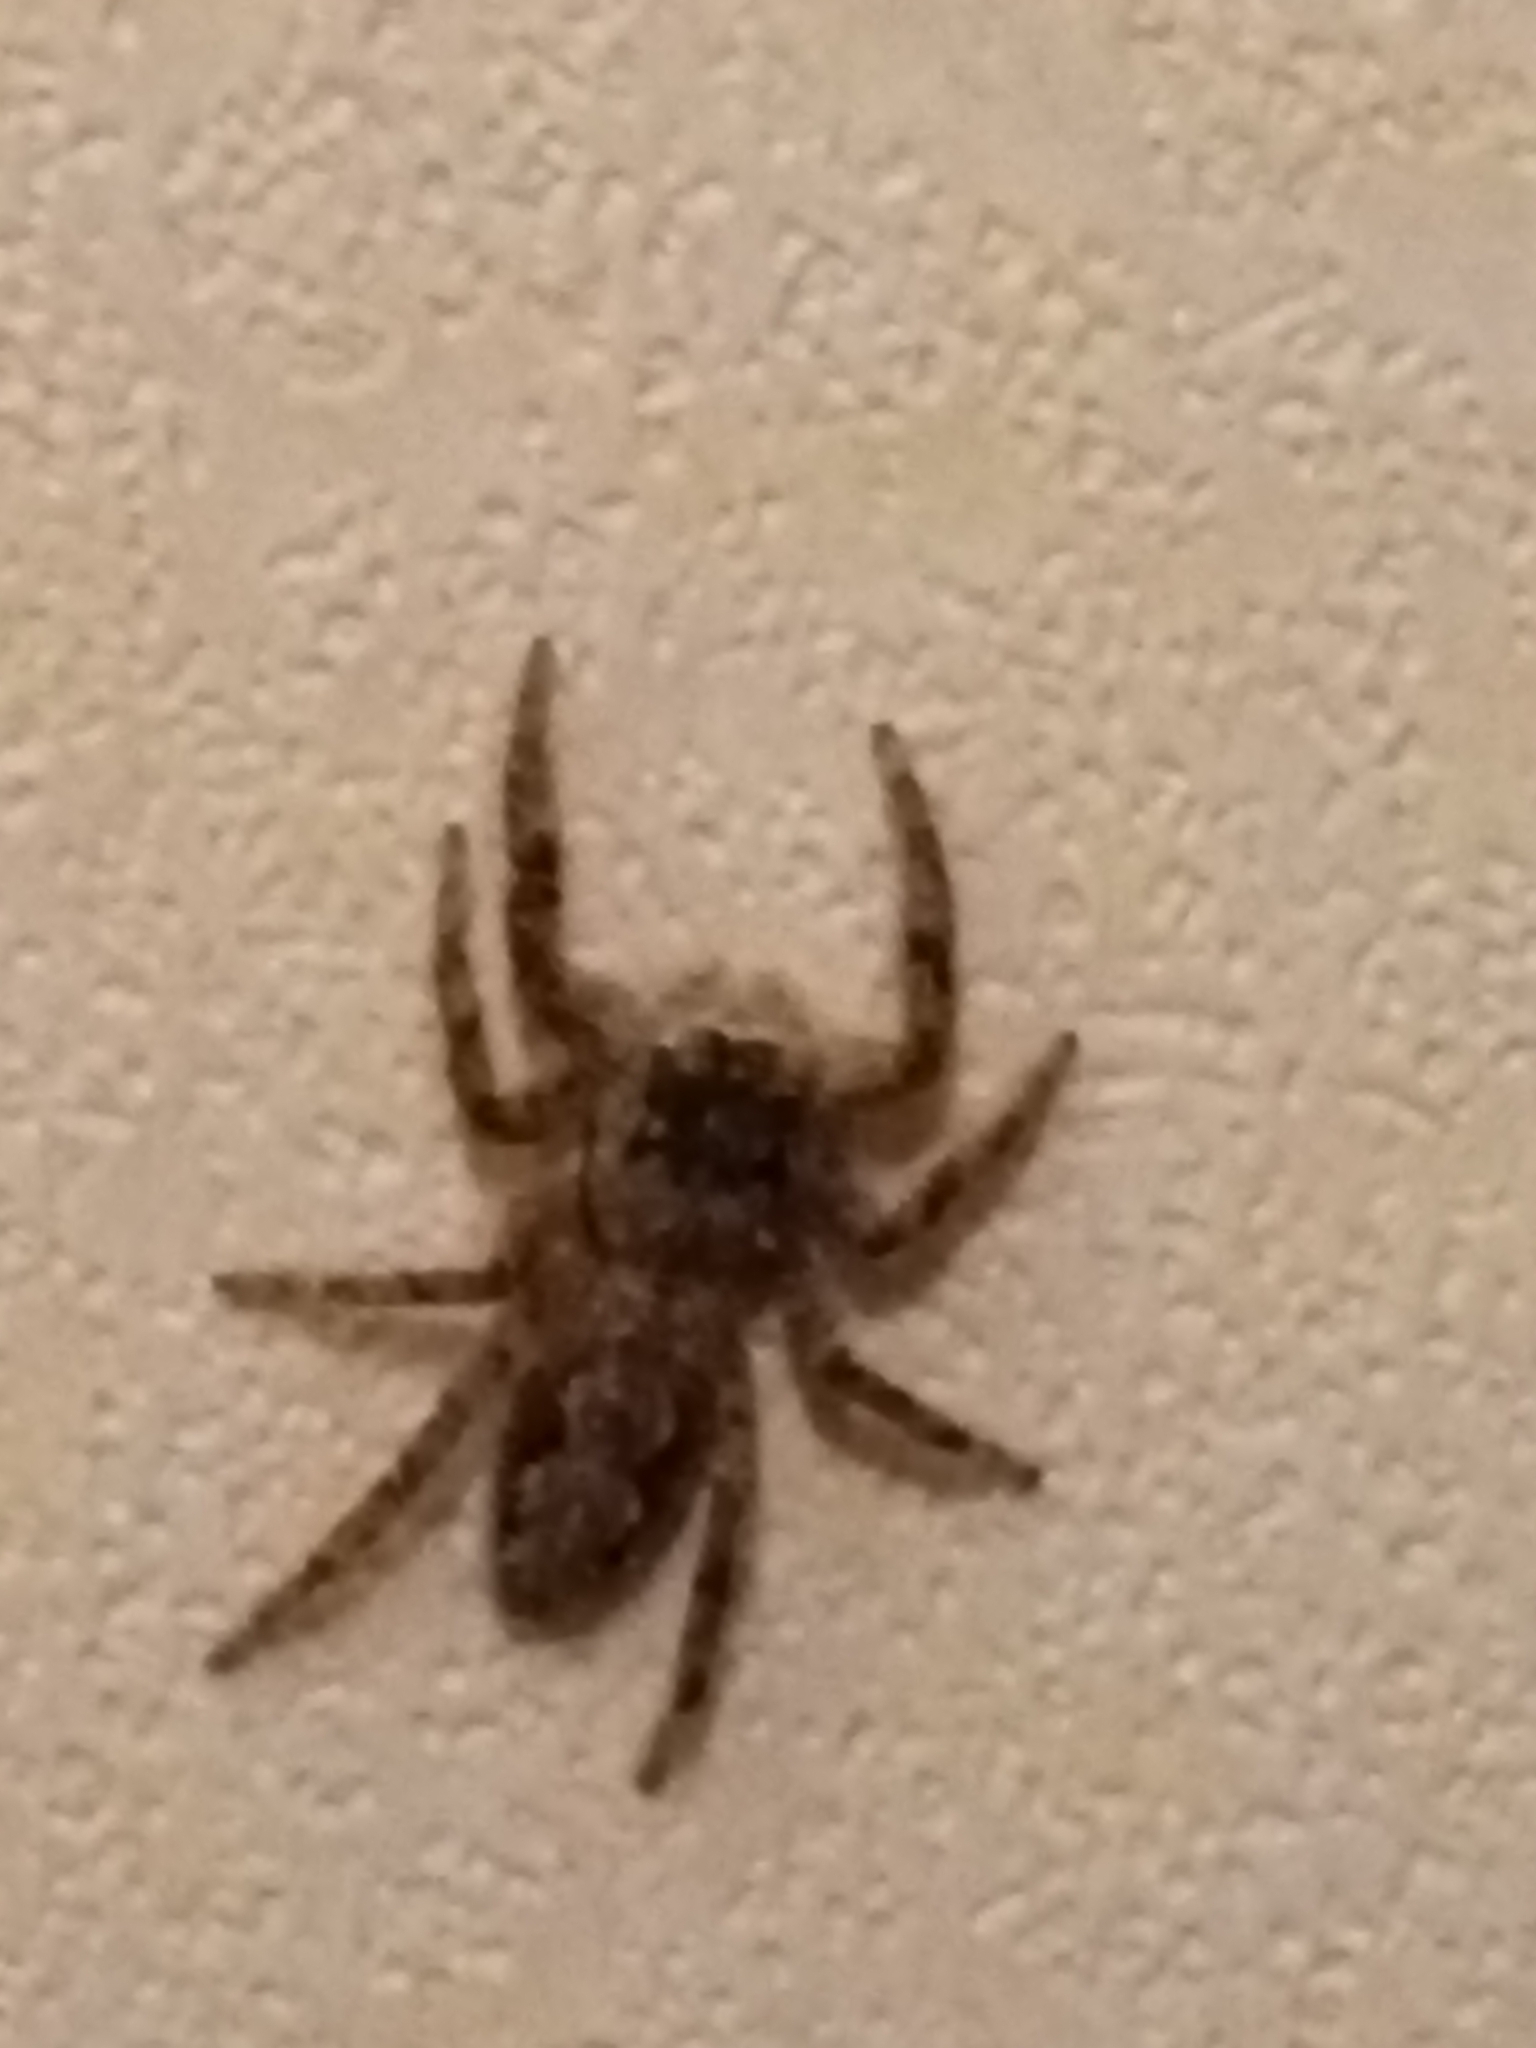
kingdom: Animalia
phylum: Arthropoda
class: Arachnida
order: Araneae
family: Salticidae
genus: Platycryptus
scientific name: Platycryptus undatus
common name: Tan jumping spider
